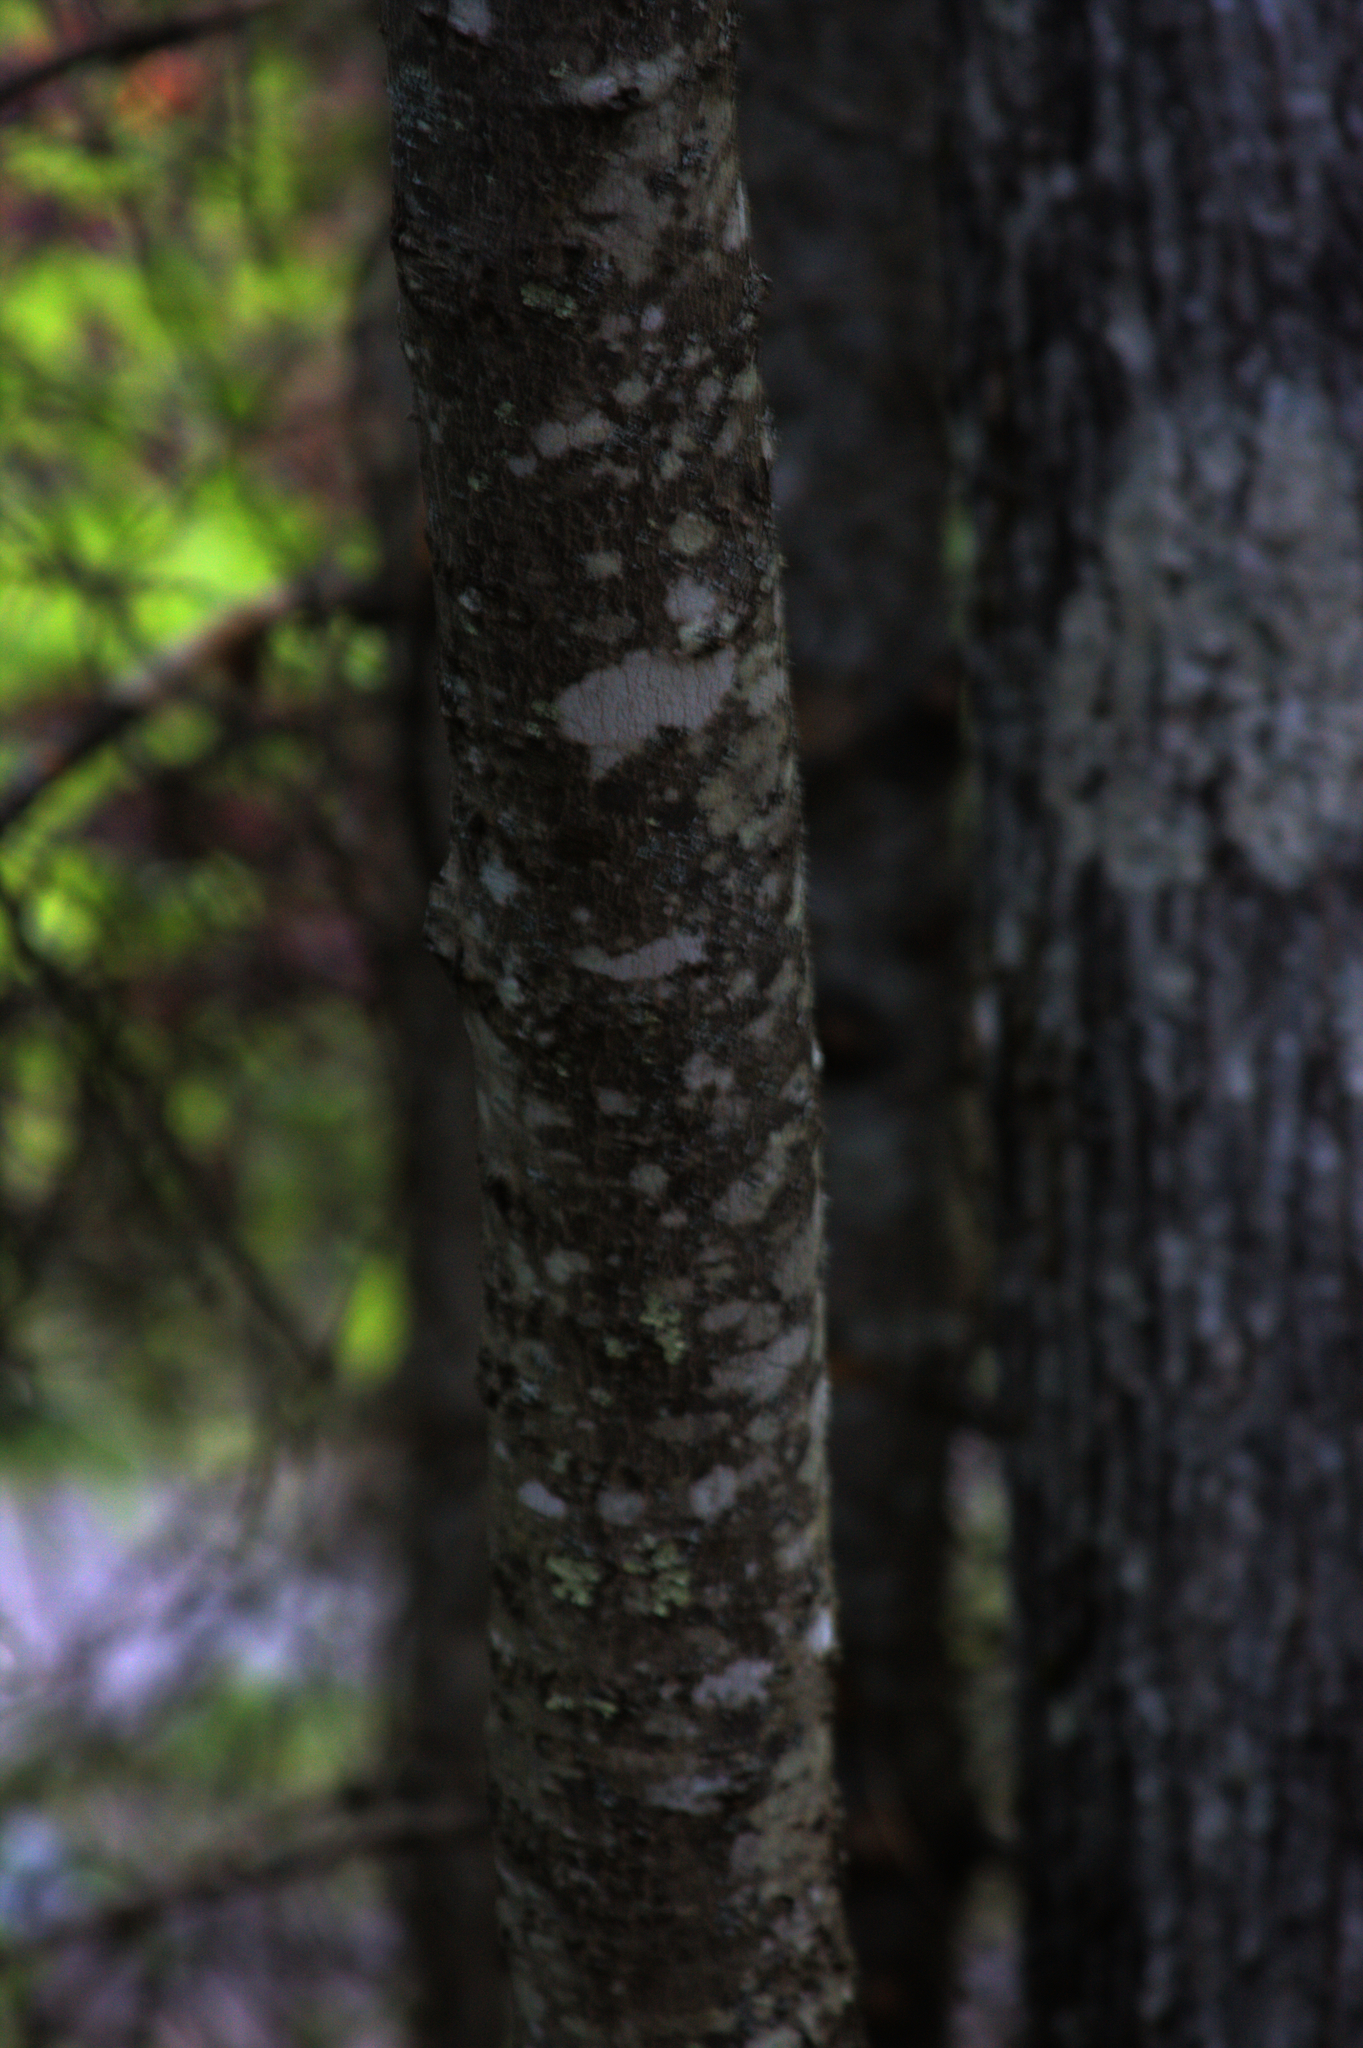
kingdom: Plantae
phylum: Tracheophyta
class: Magnoliopsida
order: Sapindales
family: Sapindaceae
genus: Acer
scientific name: Acer rubrum
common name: Red maple
